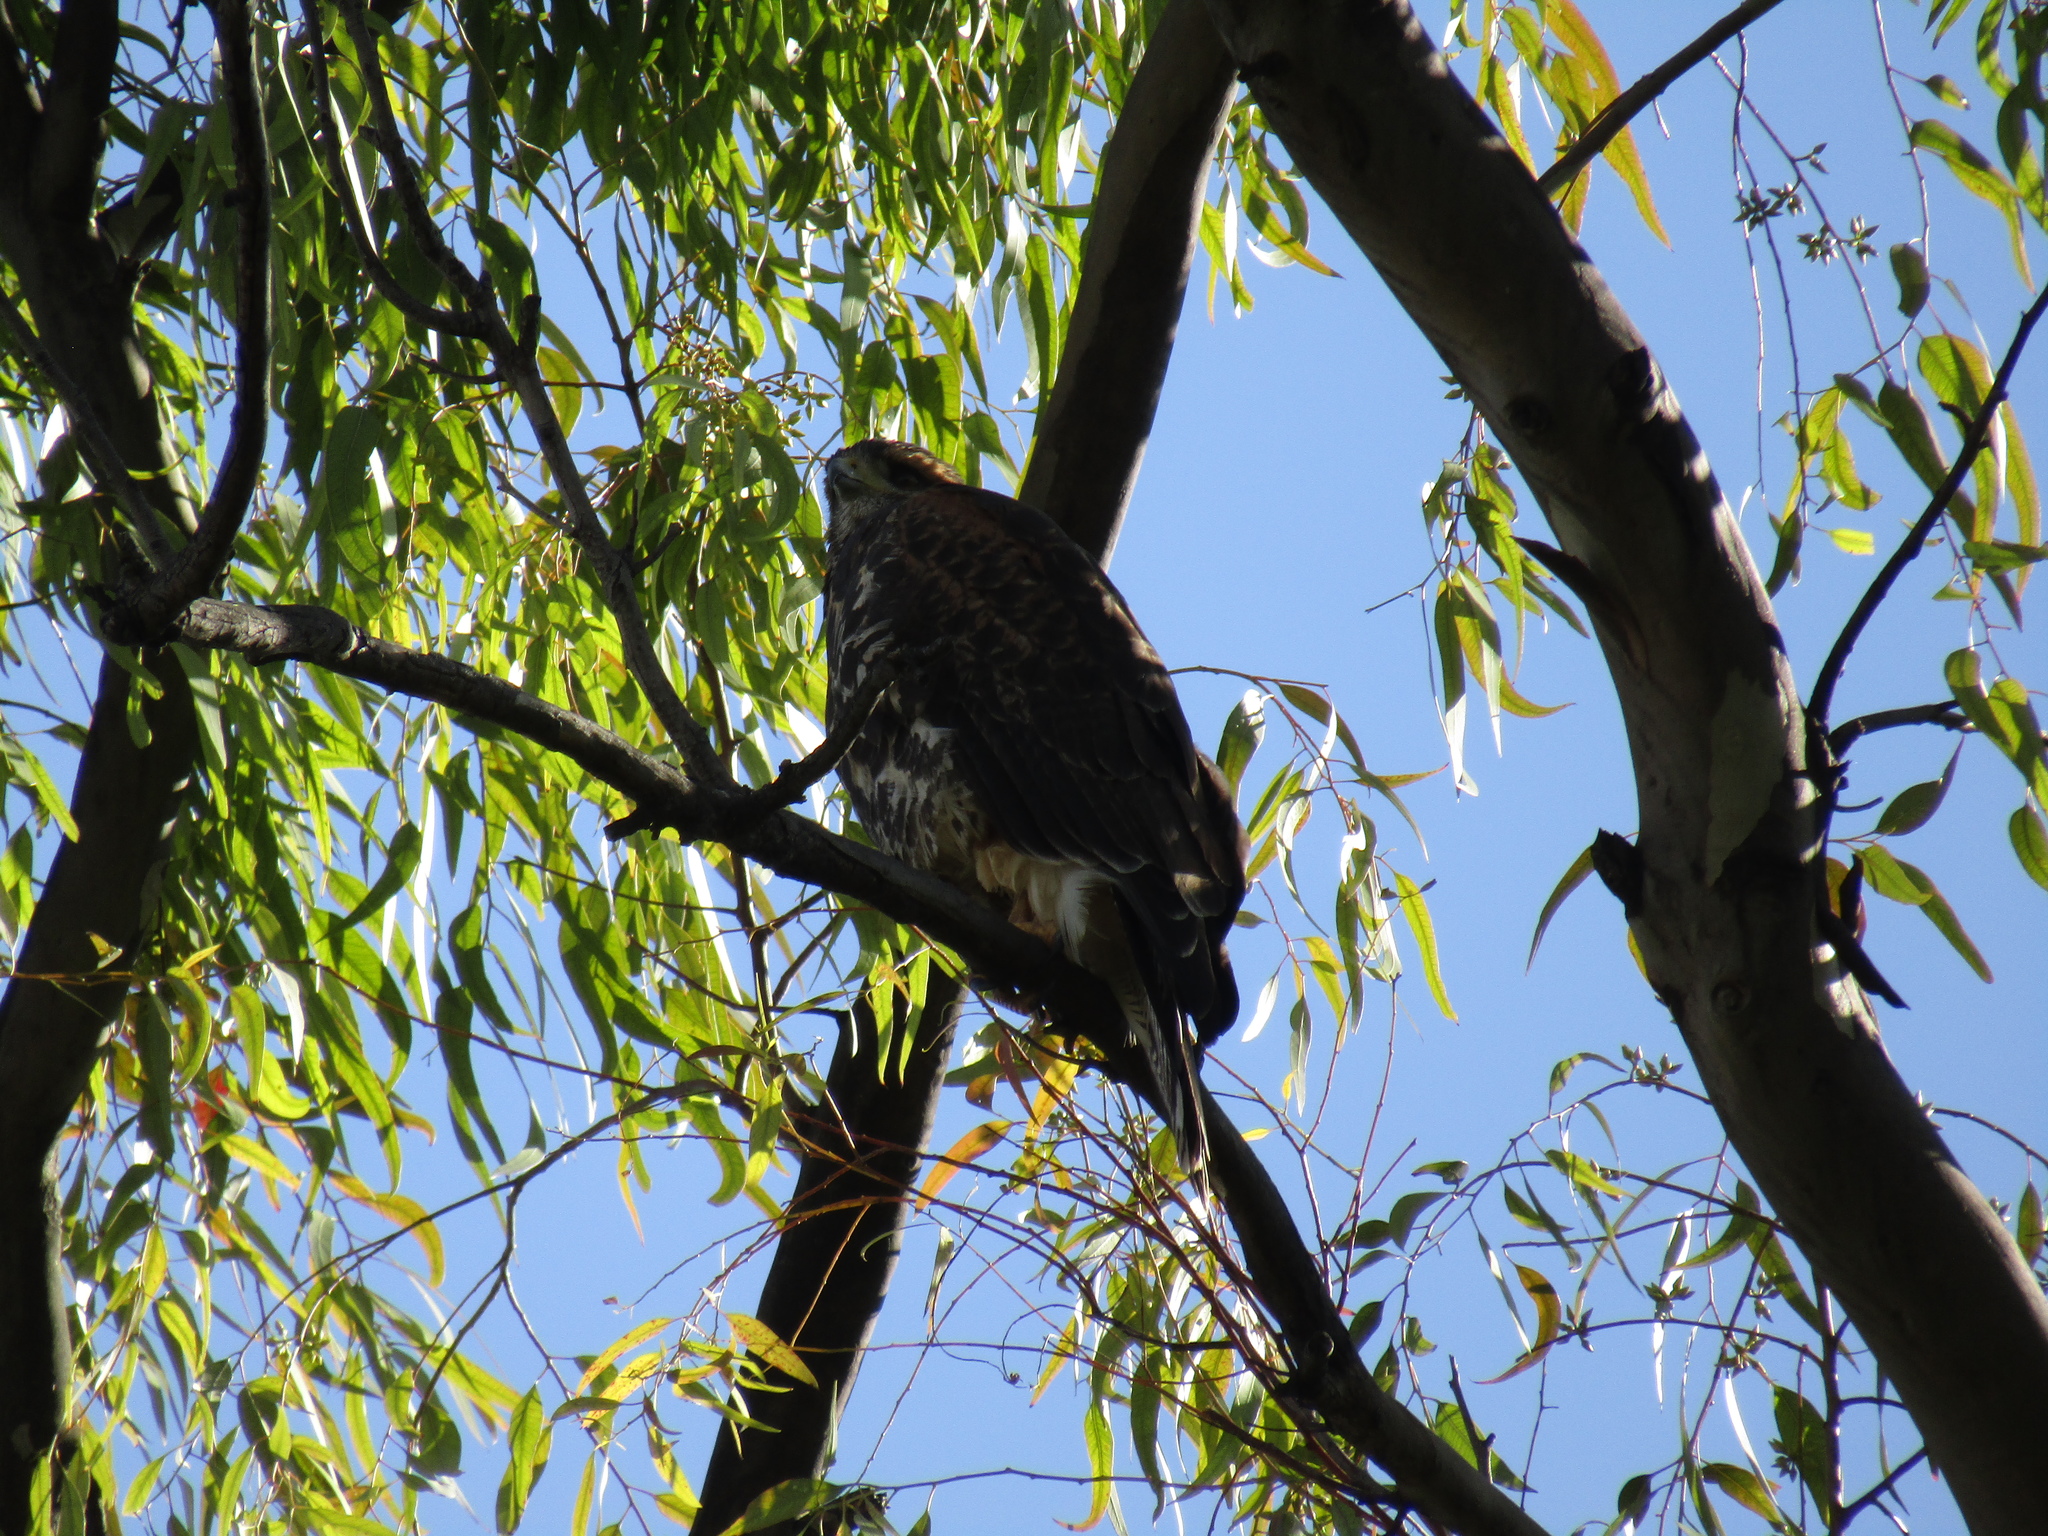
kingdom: Animalia
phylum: Chordata
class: Aves
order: Accipitriformes
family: Accipitridae
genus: Parabuteo
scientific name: Parabuteo unicinctus
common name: Harris's hawk
